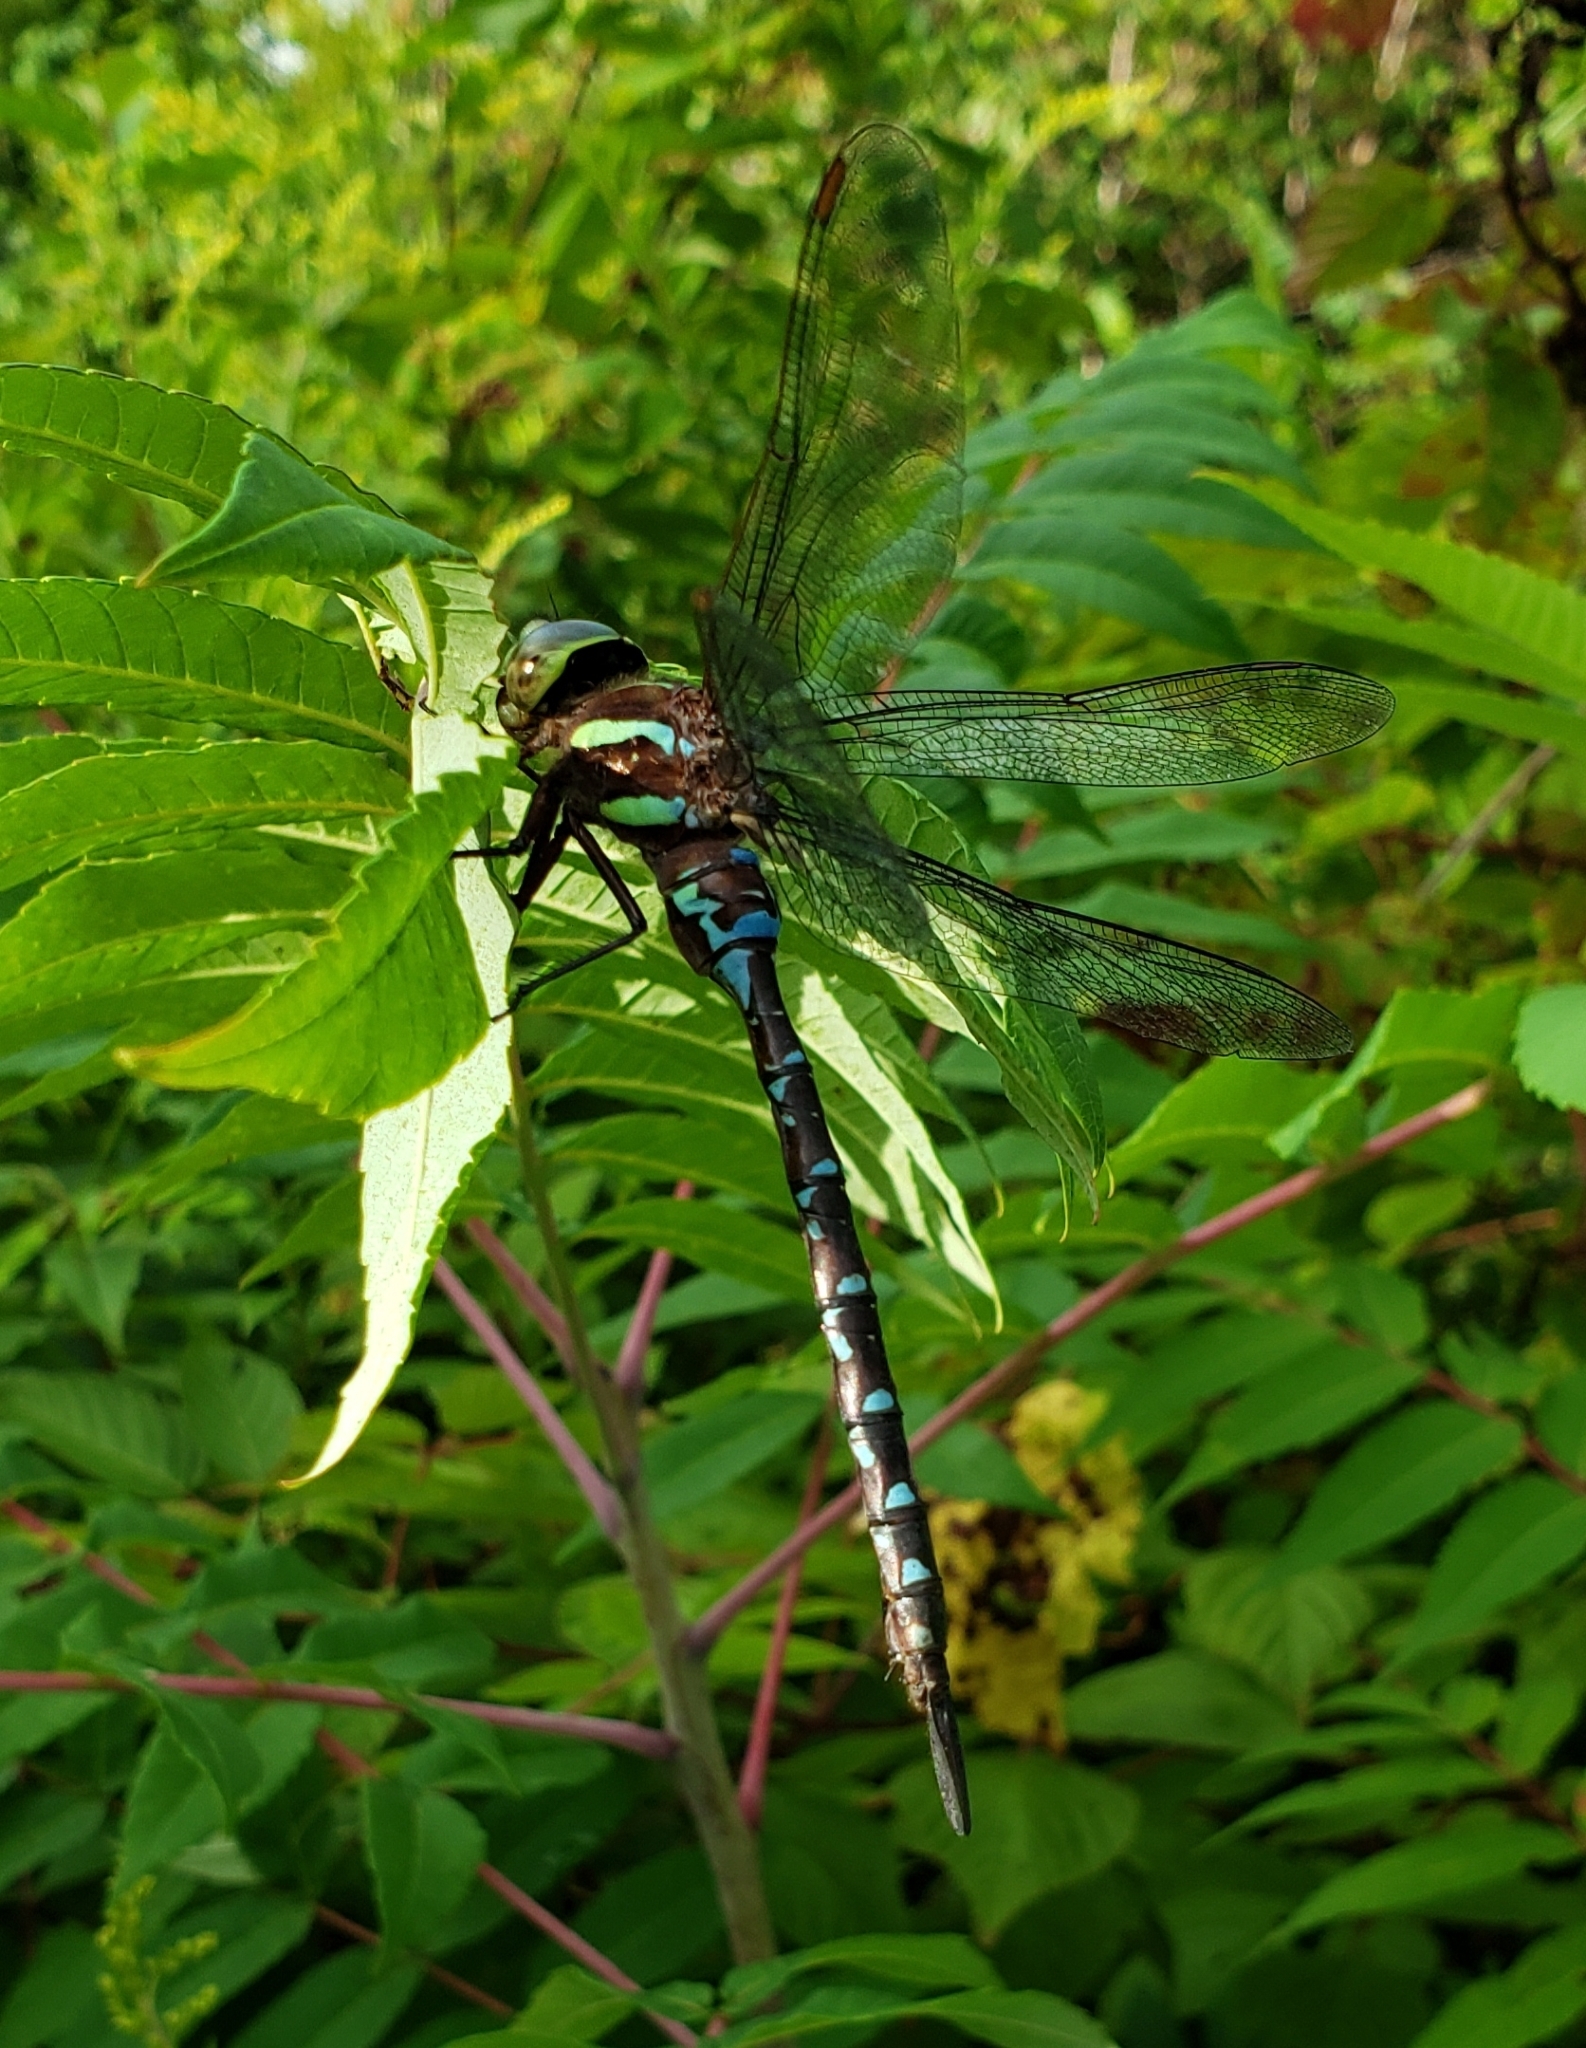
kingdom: Animalia
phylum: Arthropoda
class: Insecta
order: Odonata
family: Aeshnidae
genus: Aeshna
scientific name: Aeshna tuberculifera
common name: Aeschne à tubercules
